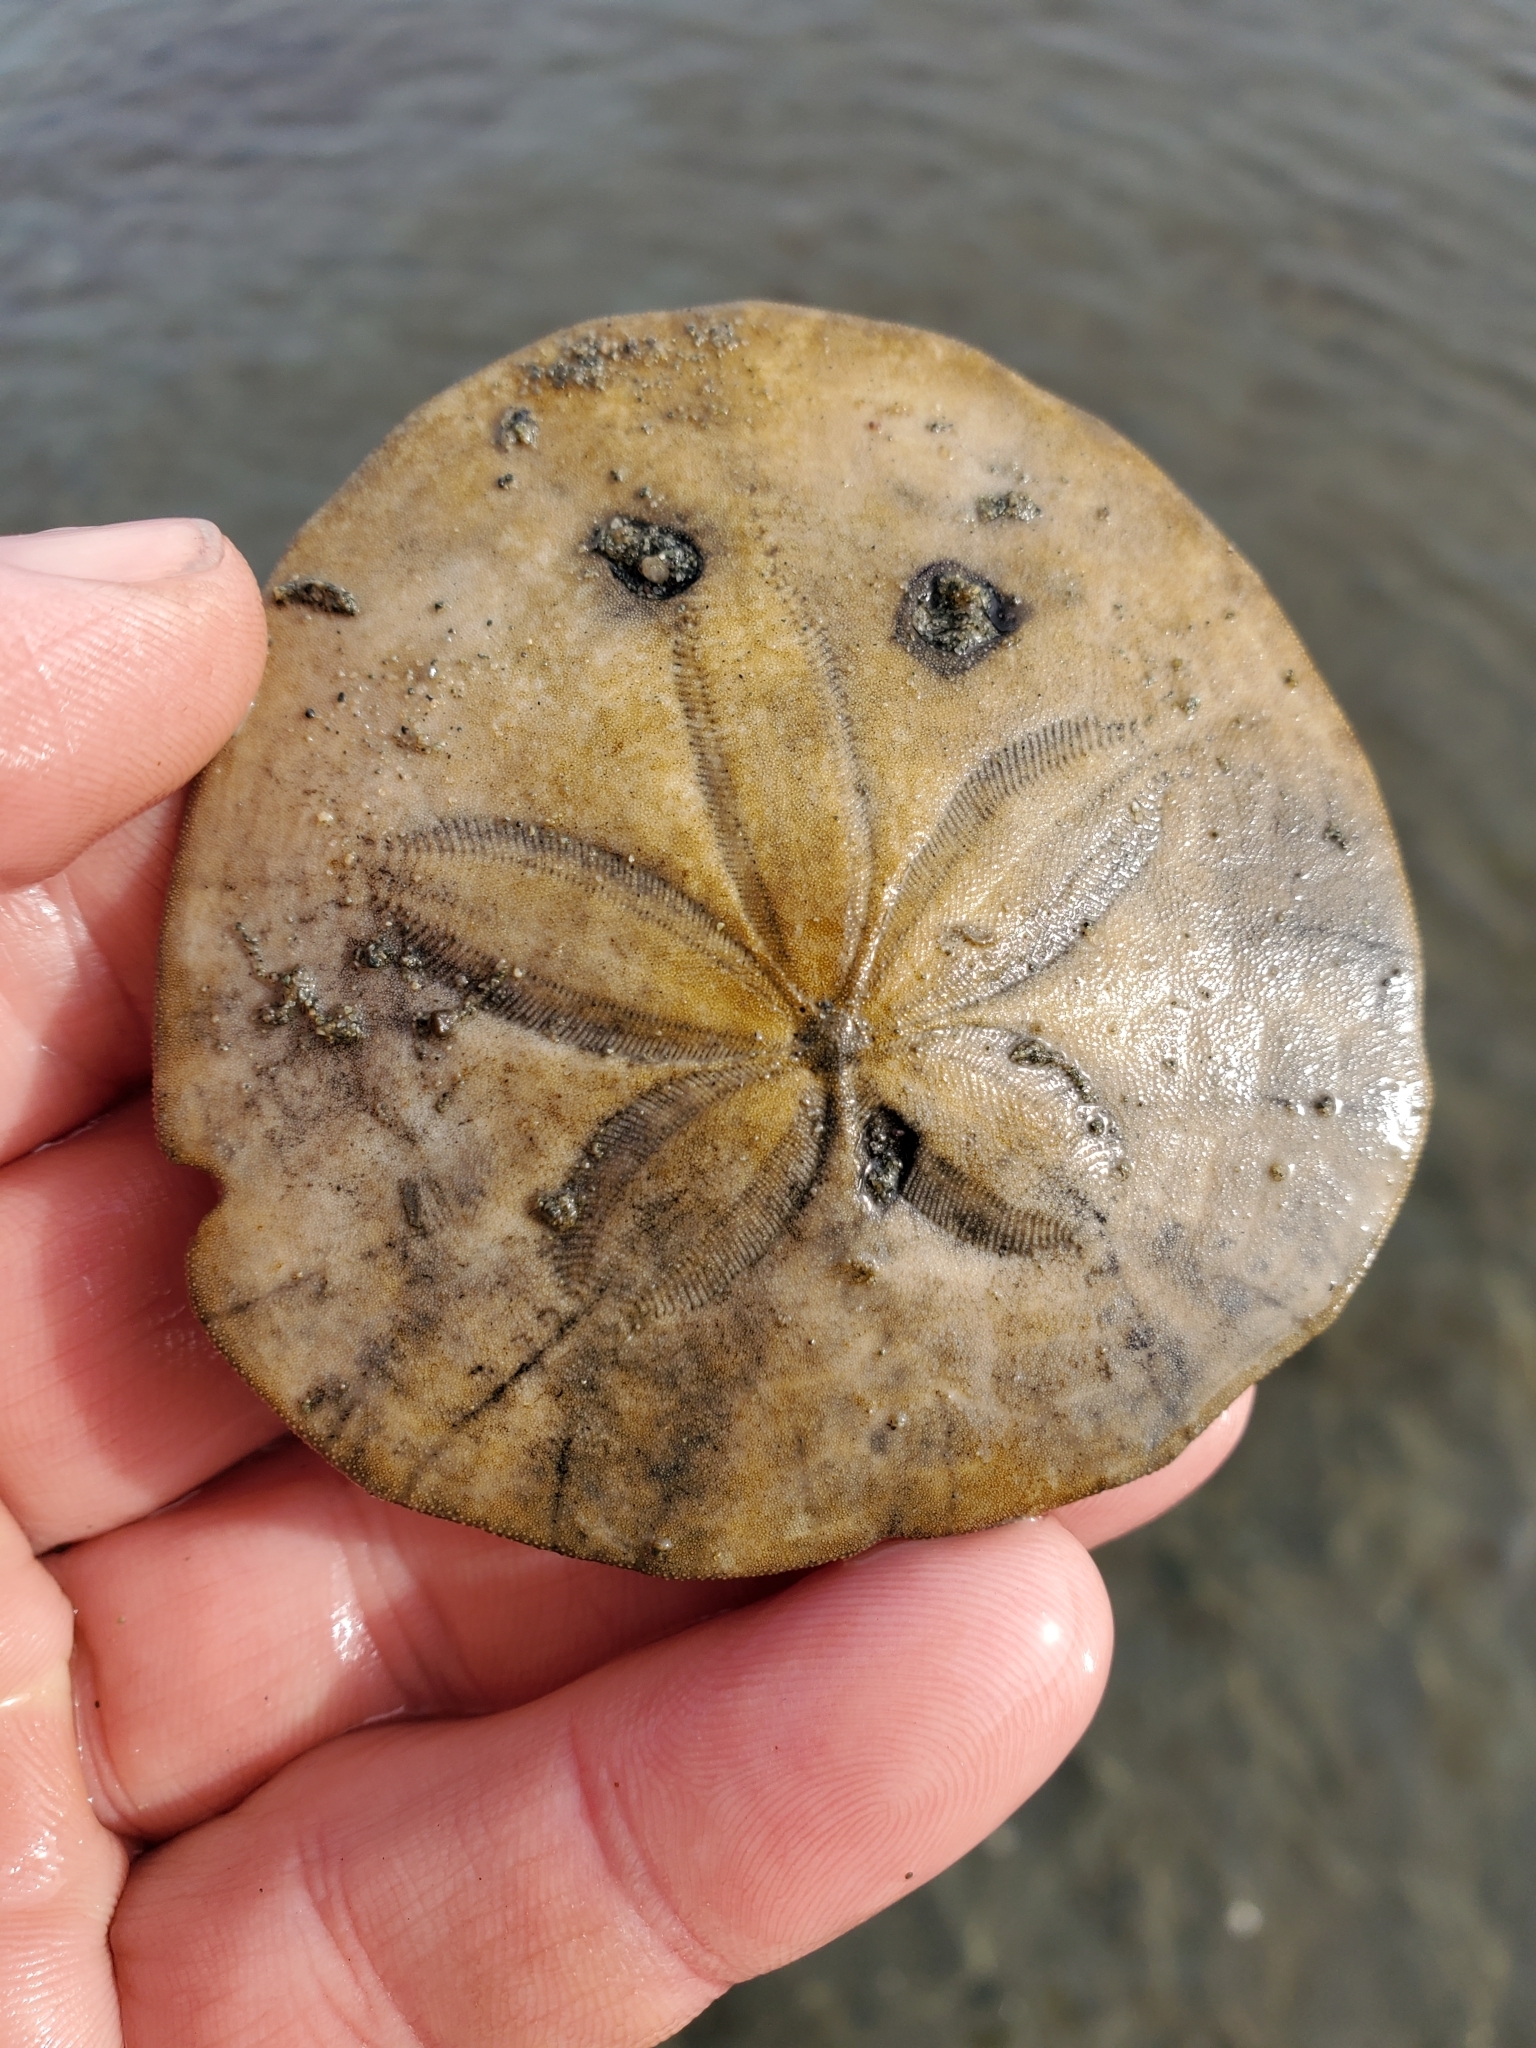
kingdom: Animalia
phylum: Echinodermata
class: Echinoidea
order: Echinolampadacea
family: Dendrasteridae
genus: Dendraster
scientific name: Dendraster excentricus
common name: Eccentric sand dollar sea urchin
